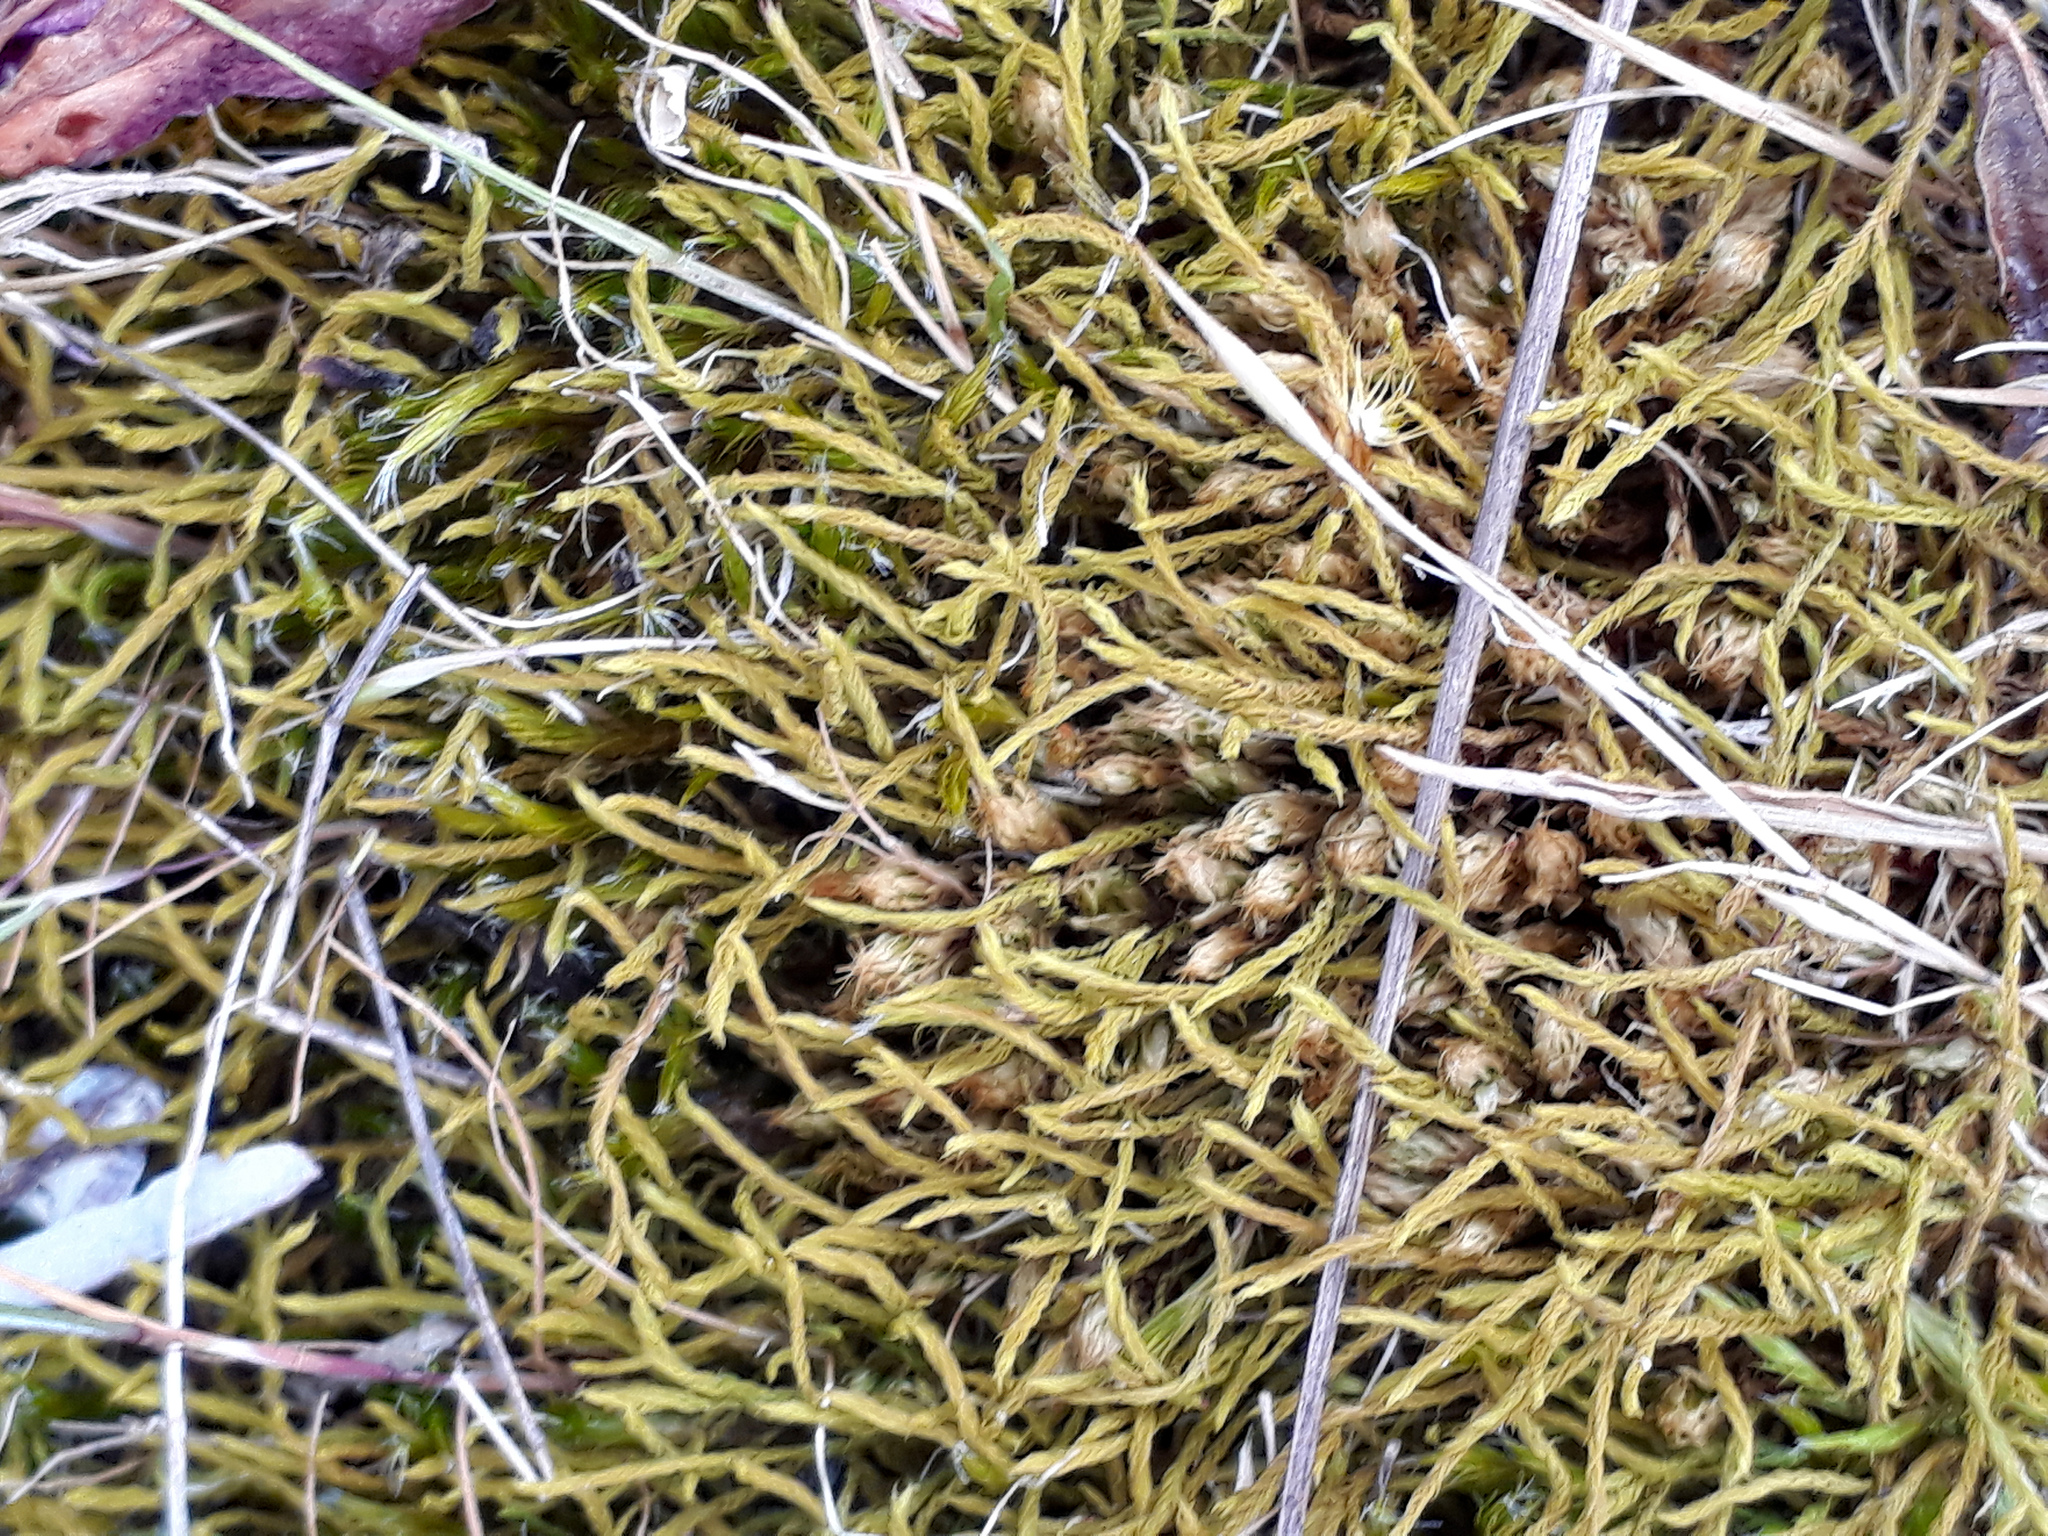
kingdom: Plantae
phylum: Bryophyta
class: Bryopsida
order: Pottiales
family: Pottiaceae
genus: Triquetrella
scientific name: Triquetrella papillata
